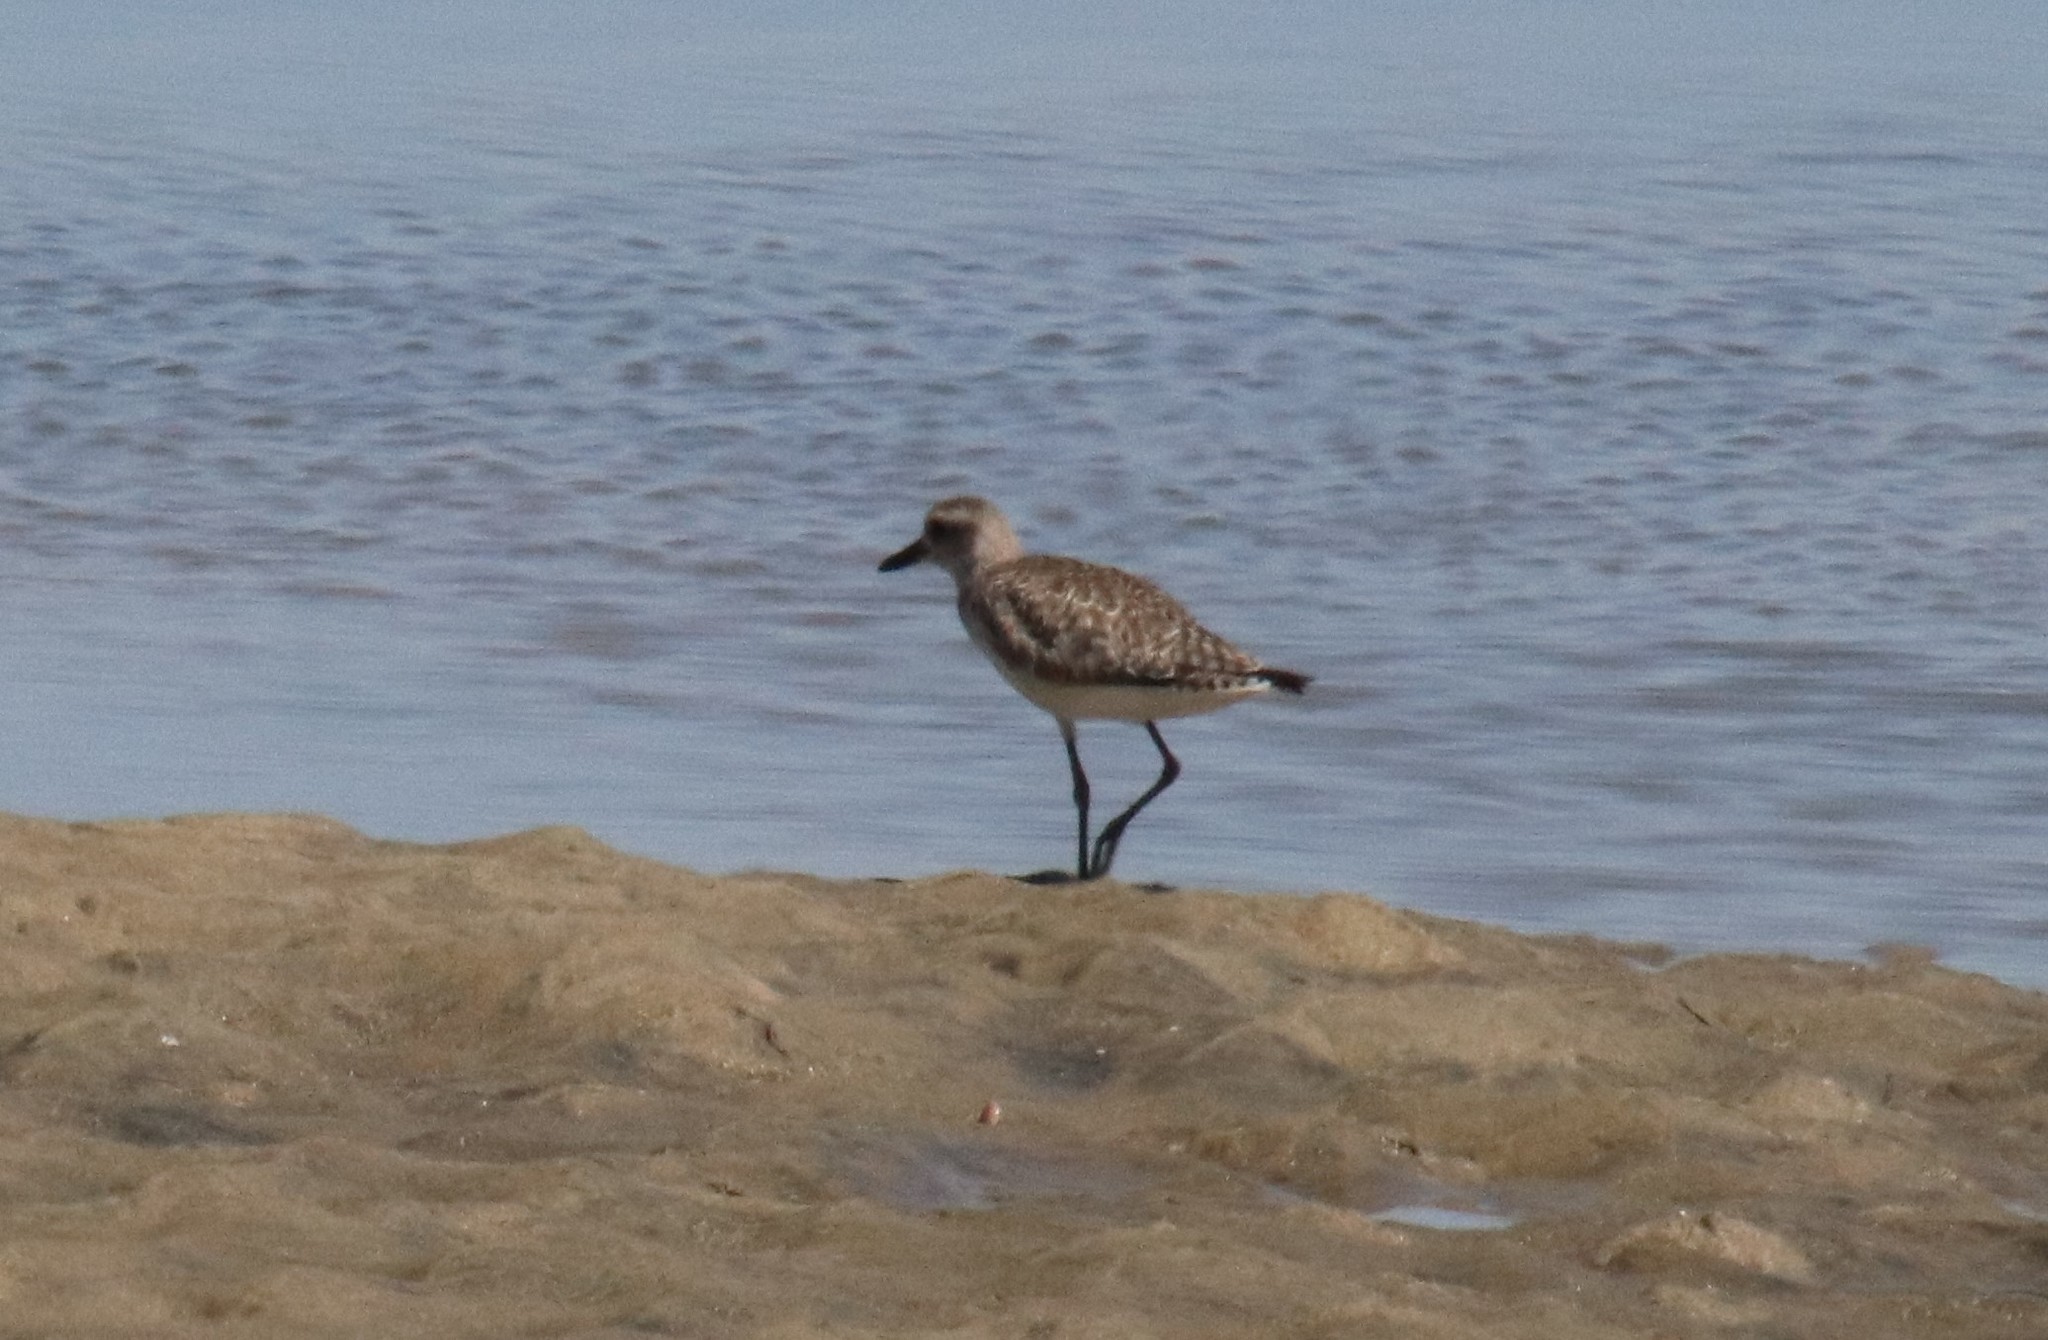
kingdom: Animalia
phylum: Chordata
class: Aves
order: Charadriiformes
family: Charadriidae
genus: Pluvialis
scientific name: Pluvialis squatarola
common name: Grey plover
